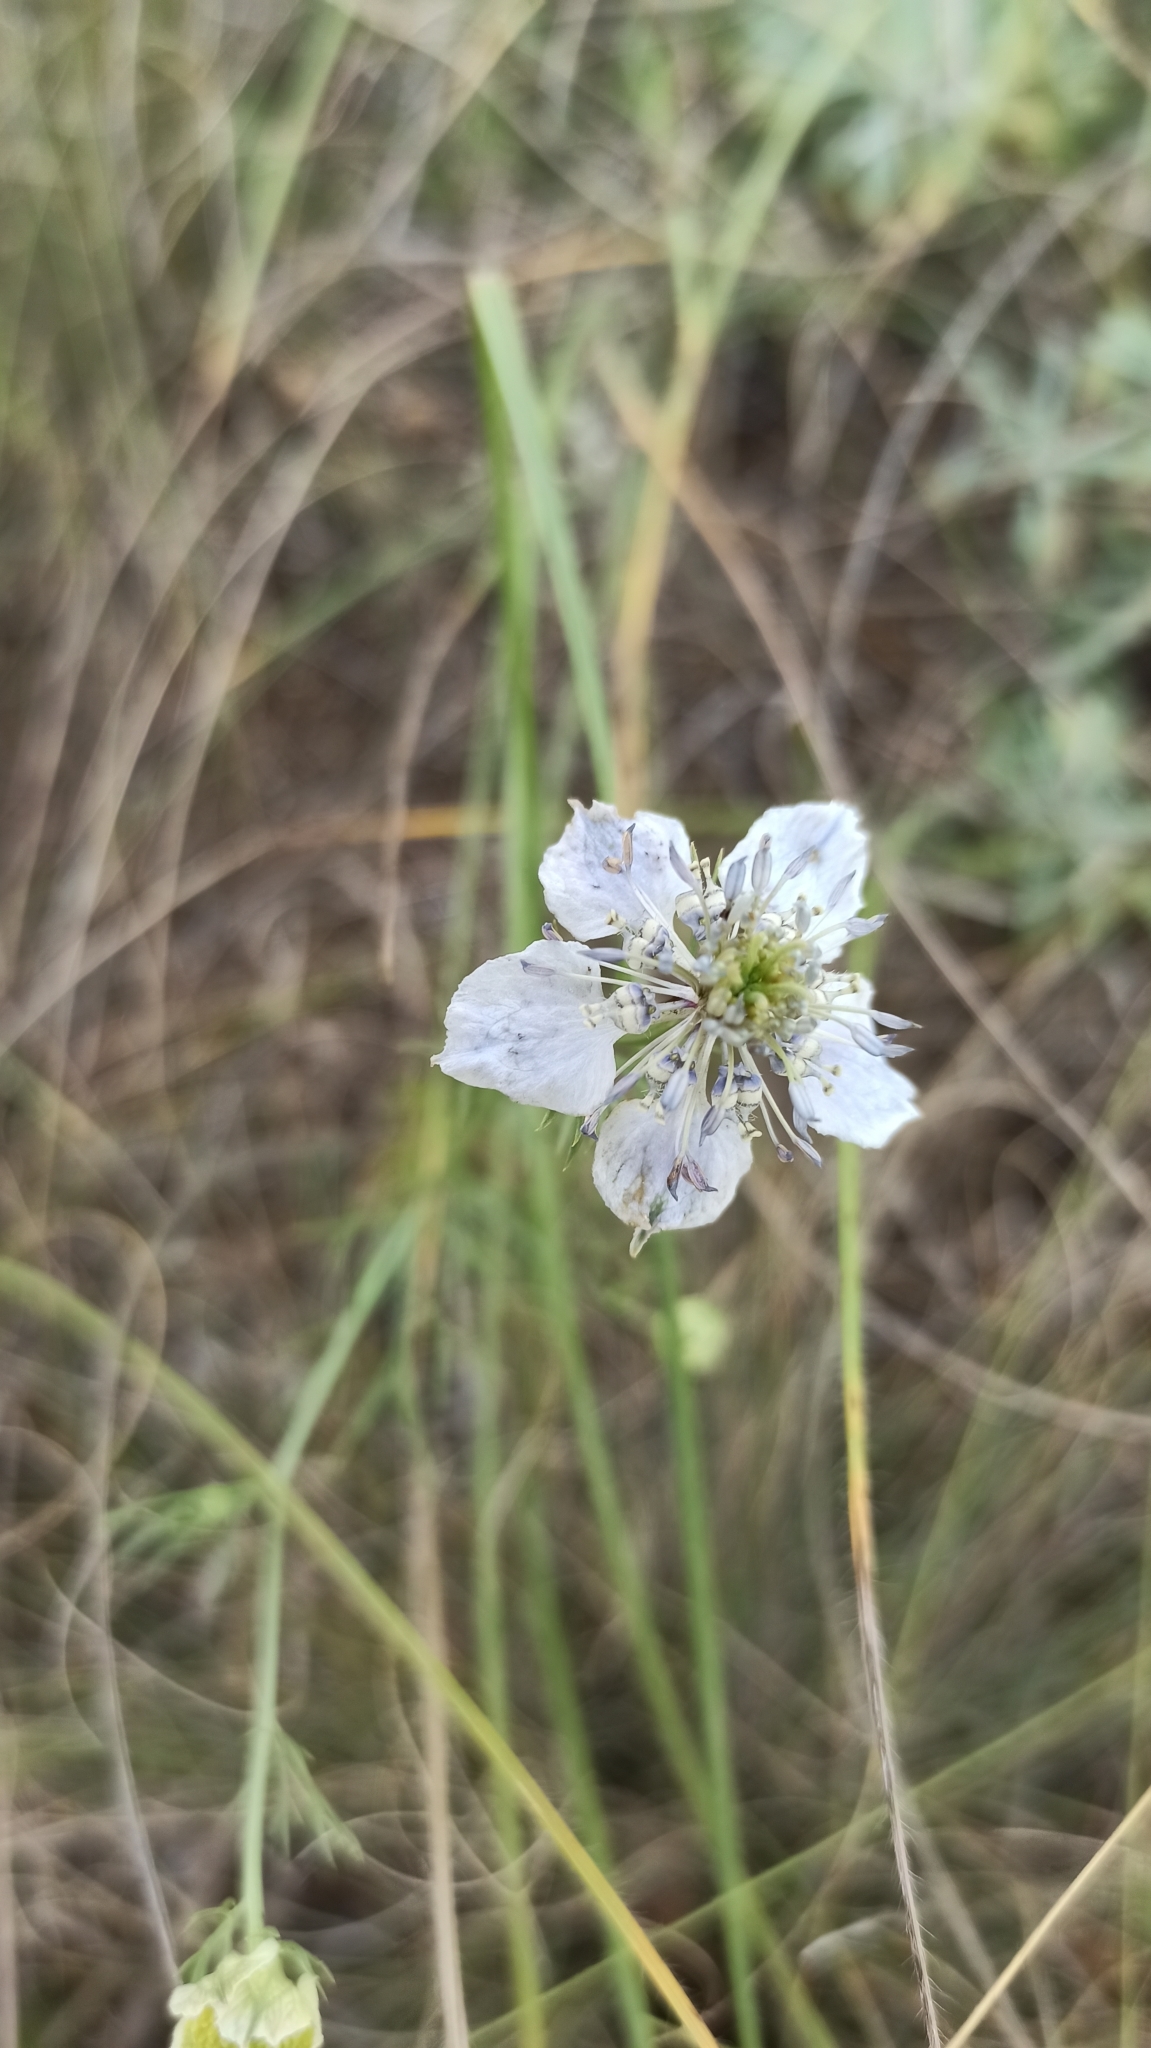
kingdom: Plantae
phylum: Tracheophyta
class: Magnoliopsida
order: Ranunculales
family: Ranunculaceae
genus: Nigella
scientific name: Nigella arvensis
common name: Wild fennel-flower
